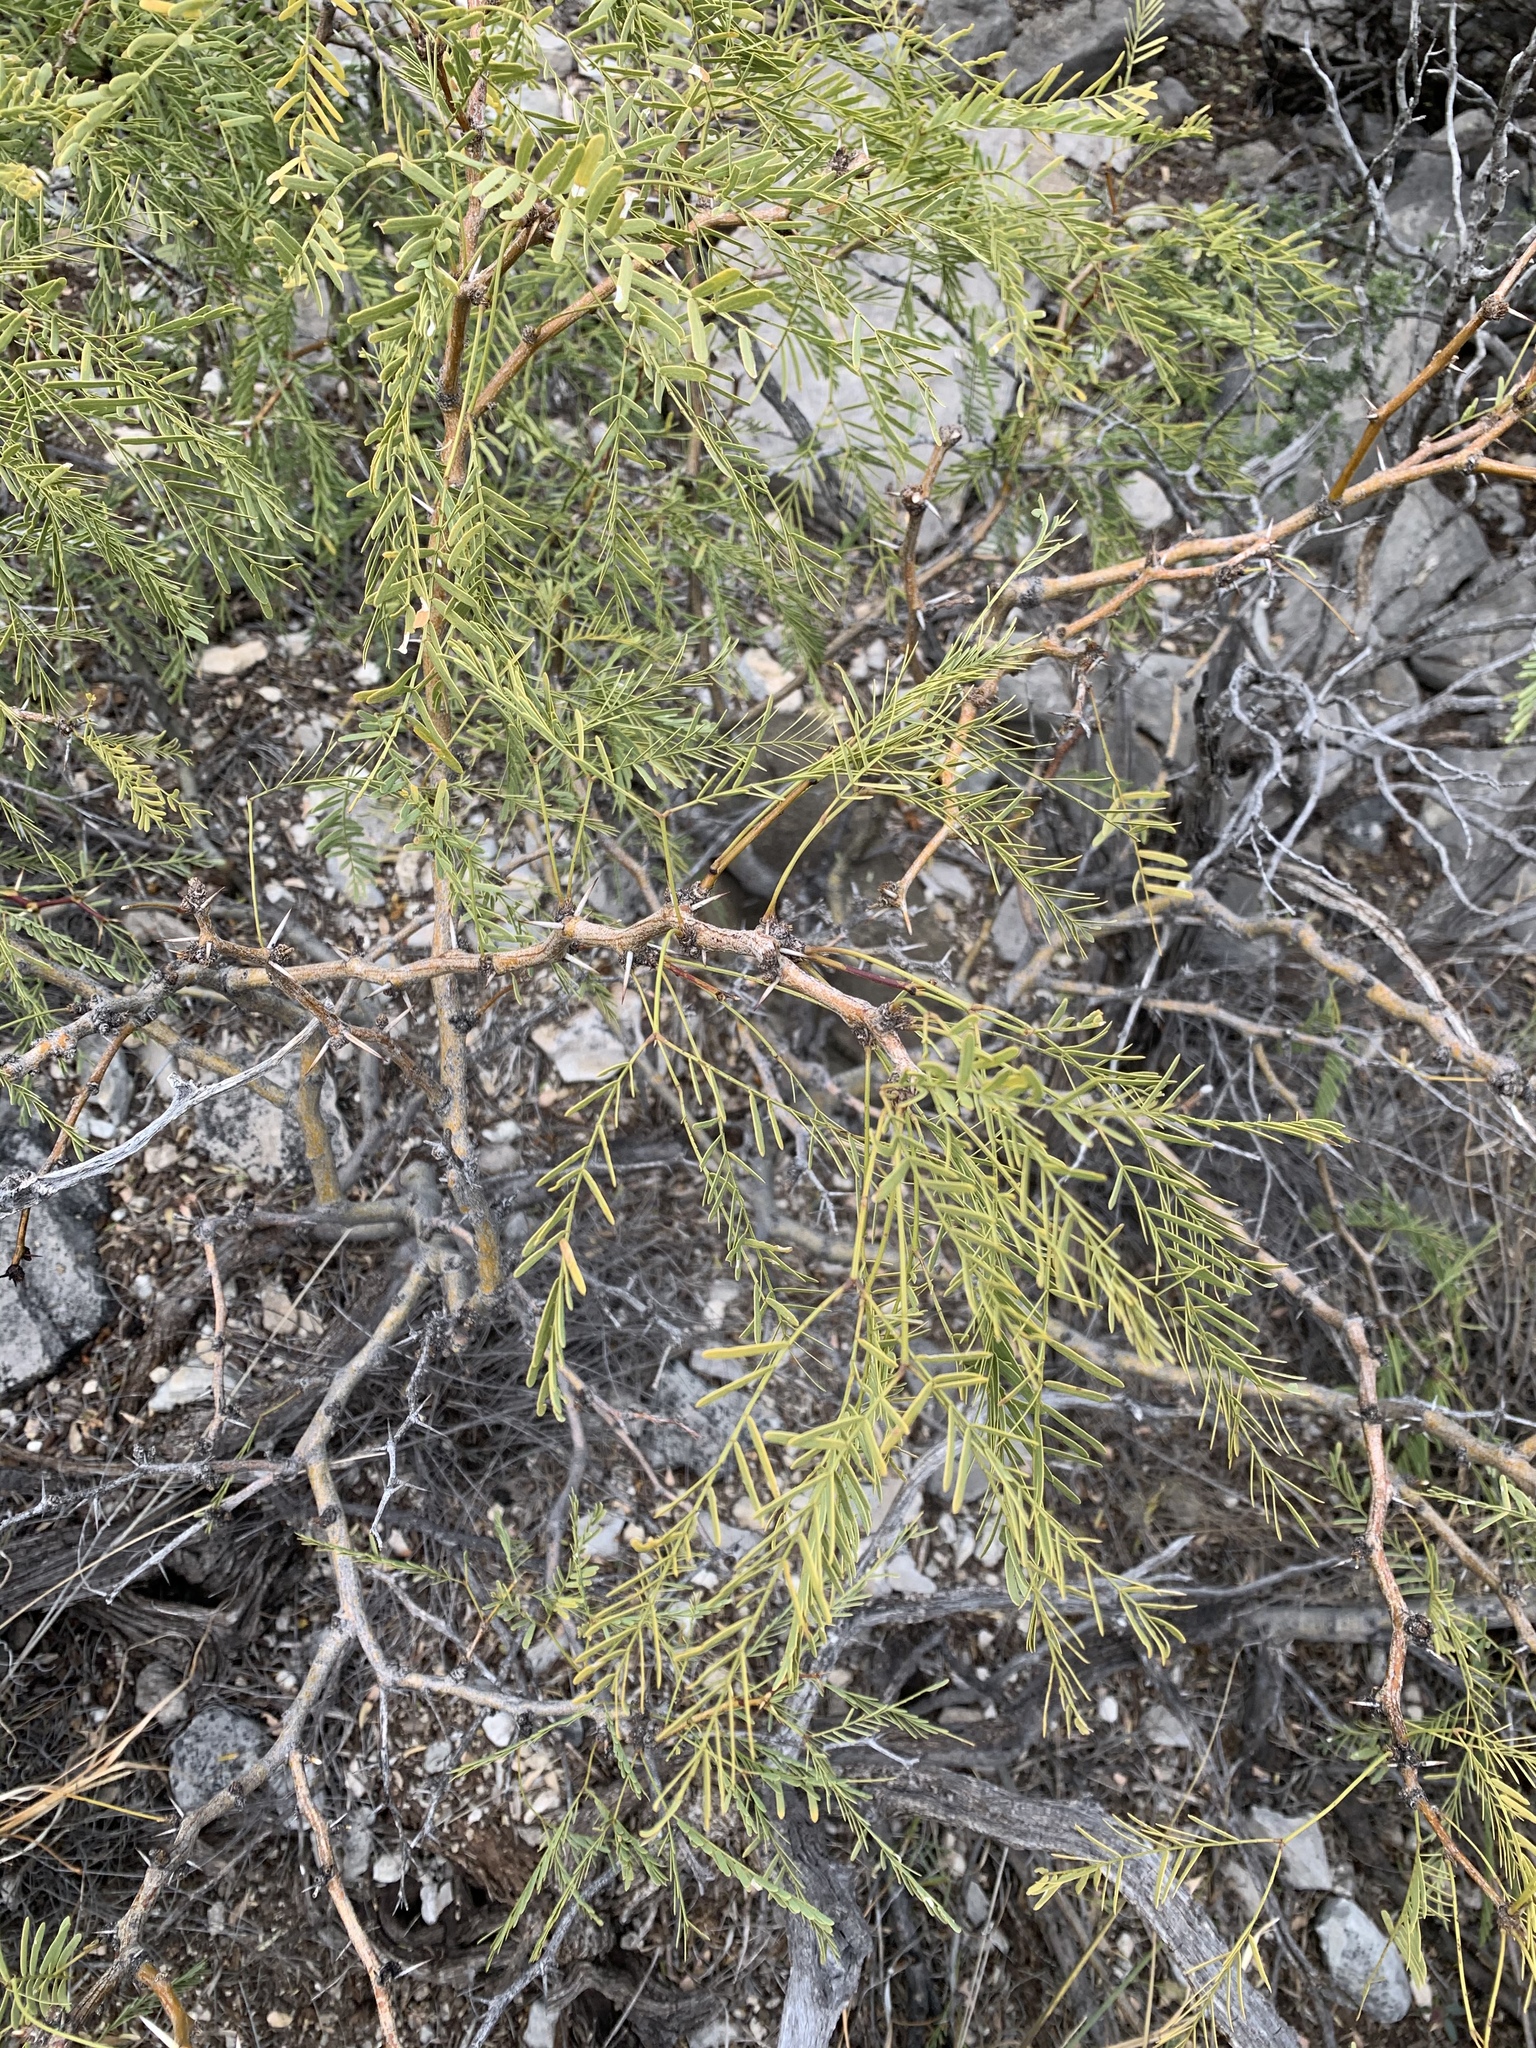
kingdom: Plantae
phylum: Tracheophyta
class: Magnoliopsida
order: Fabales
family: Fabaceae
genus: Prosopis
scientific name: Prosopis glandulosa
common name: Honey mesquite
